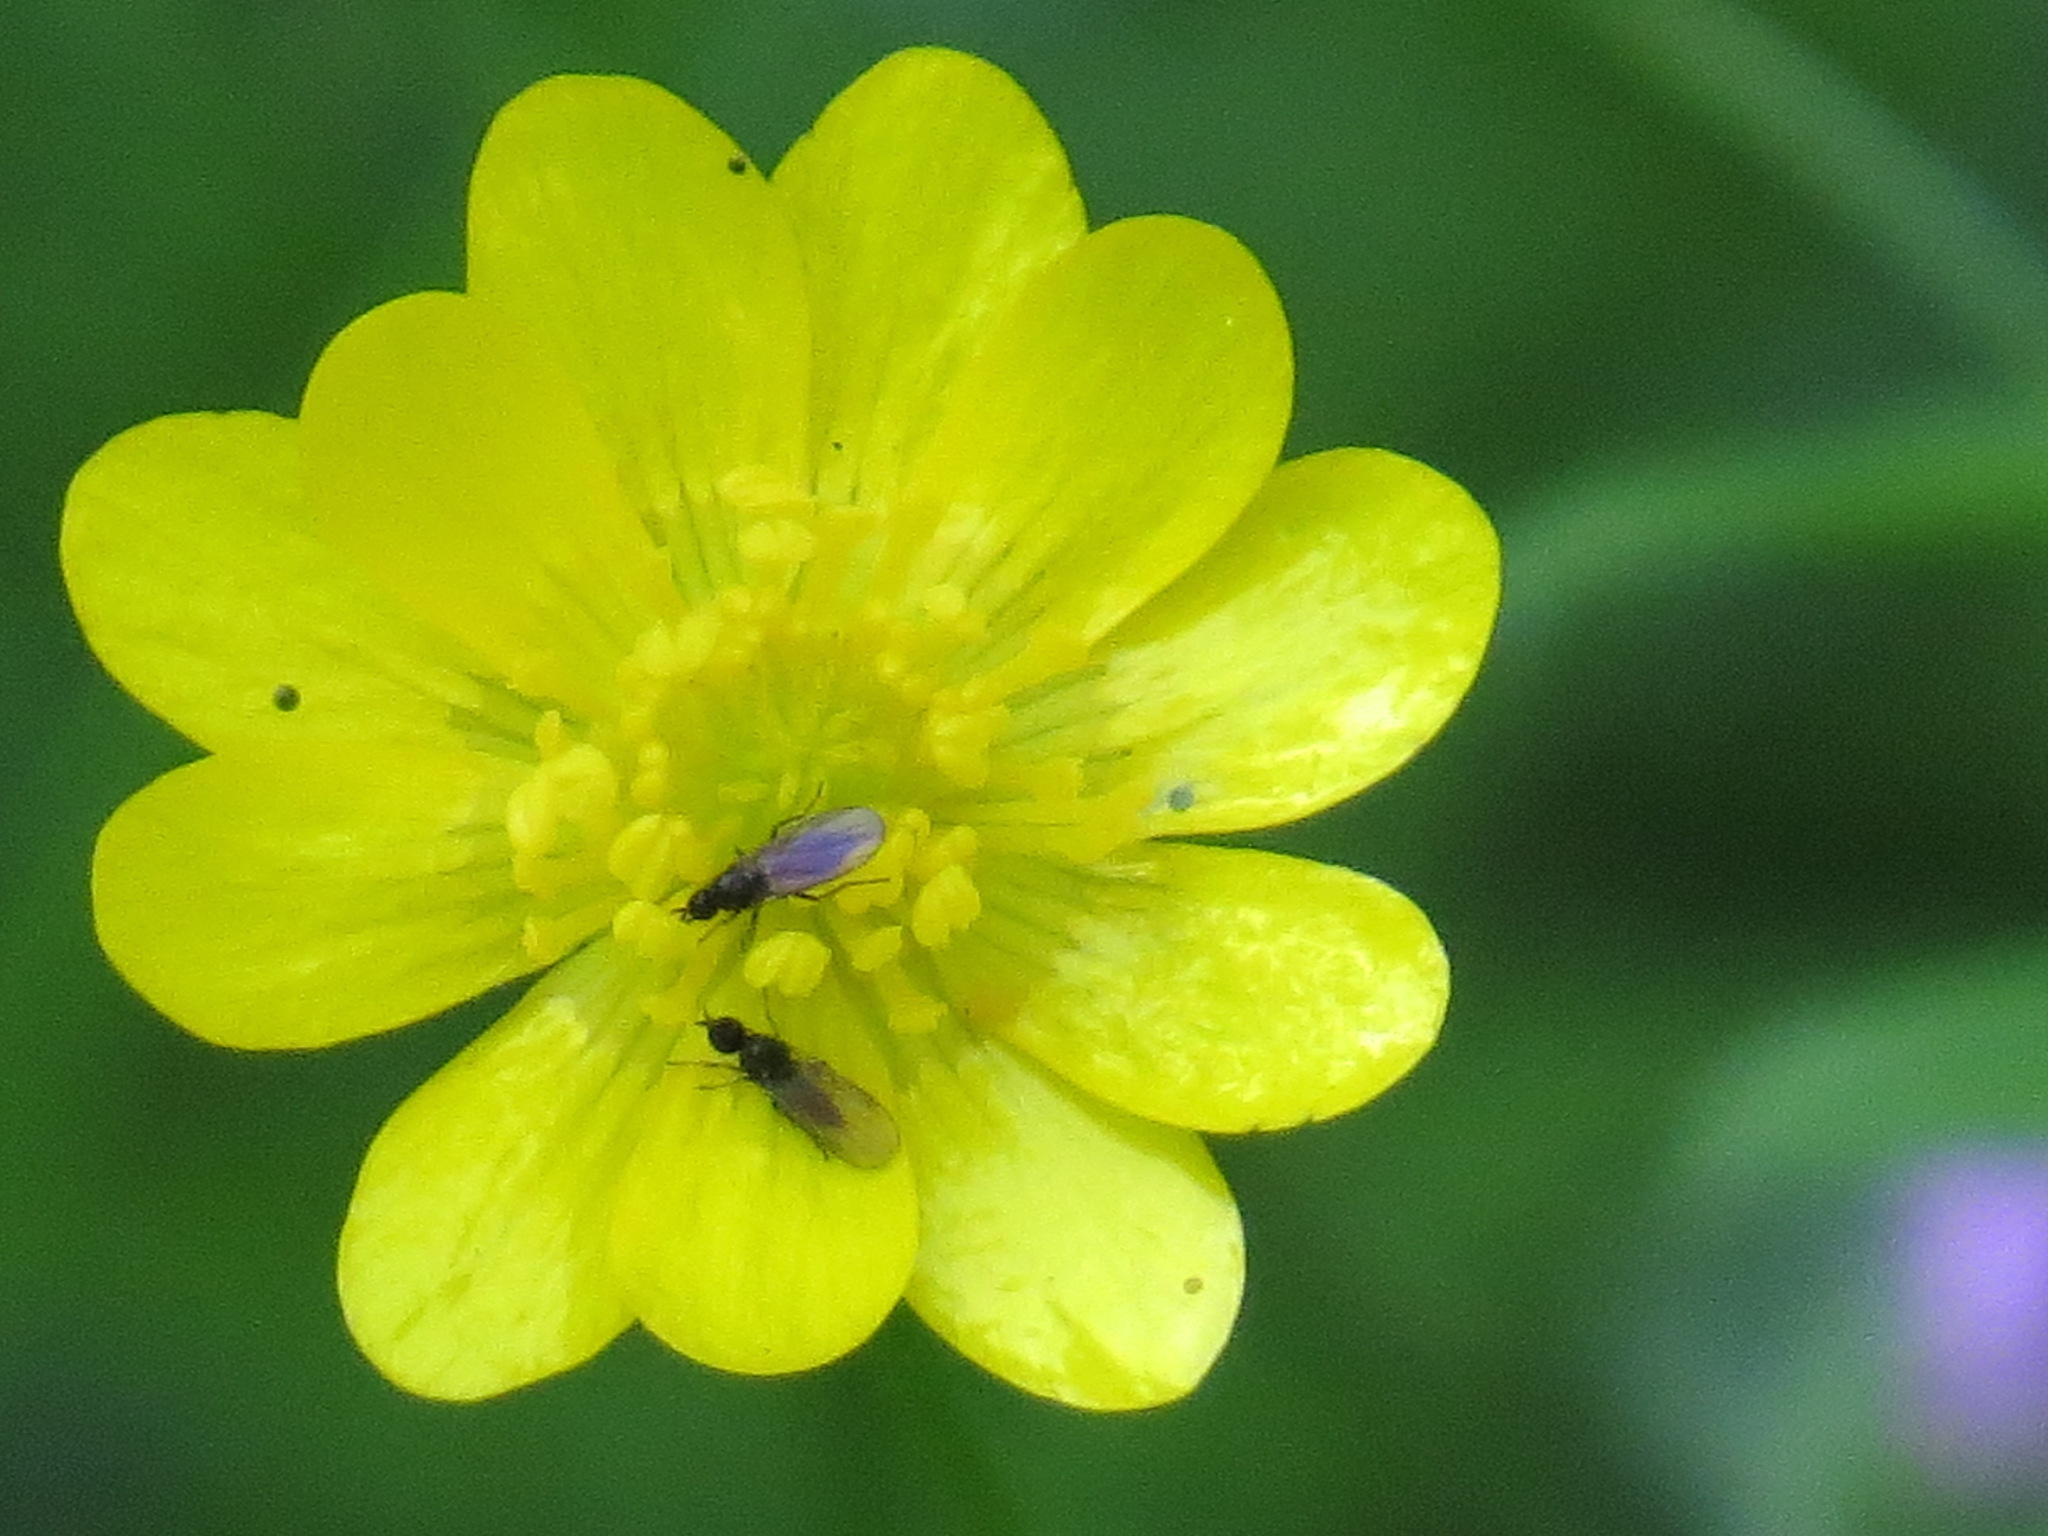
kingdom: Plantae
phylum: Tracheophyta
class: Magnoliopsida
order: Ranunculales
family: Ranunculaceae
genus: Ranunculus
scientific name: Ranunculus californicus
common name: California buttercup
